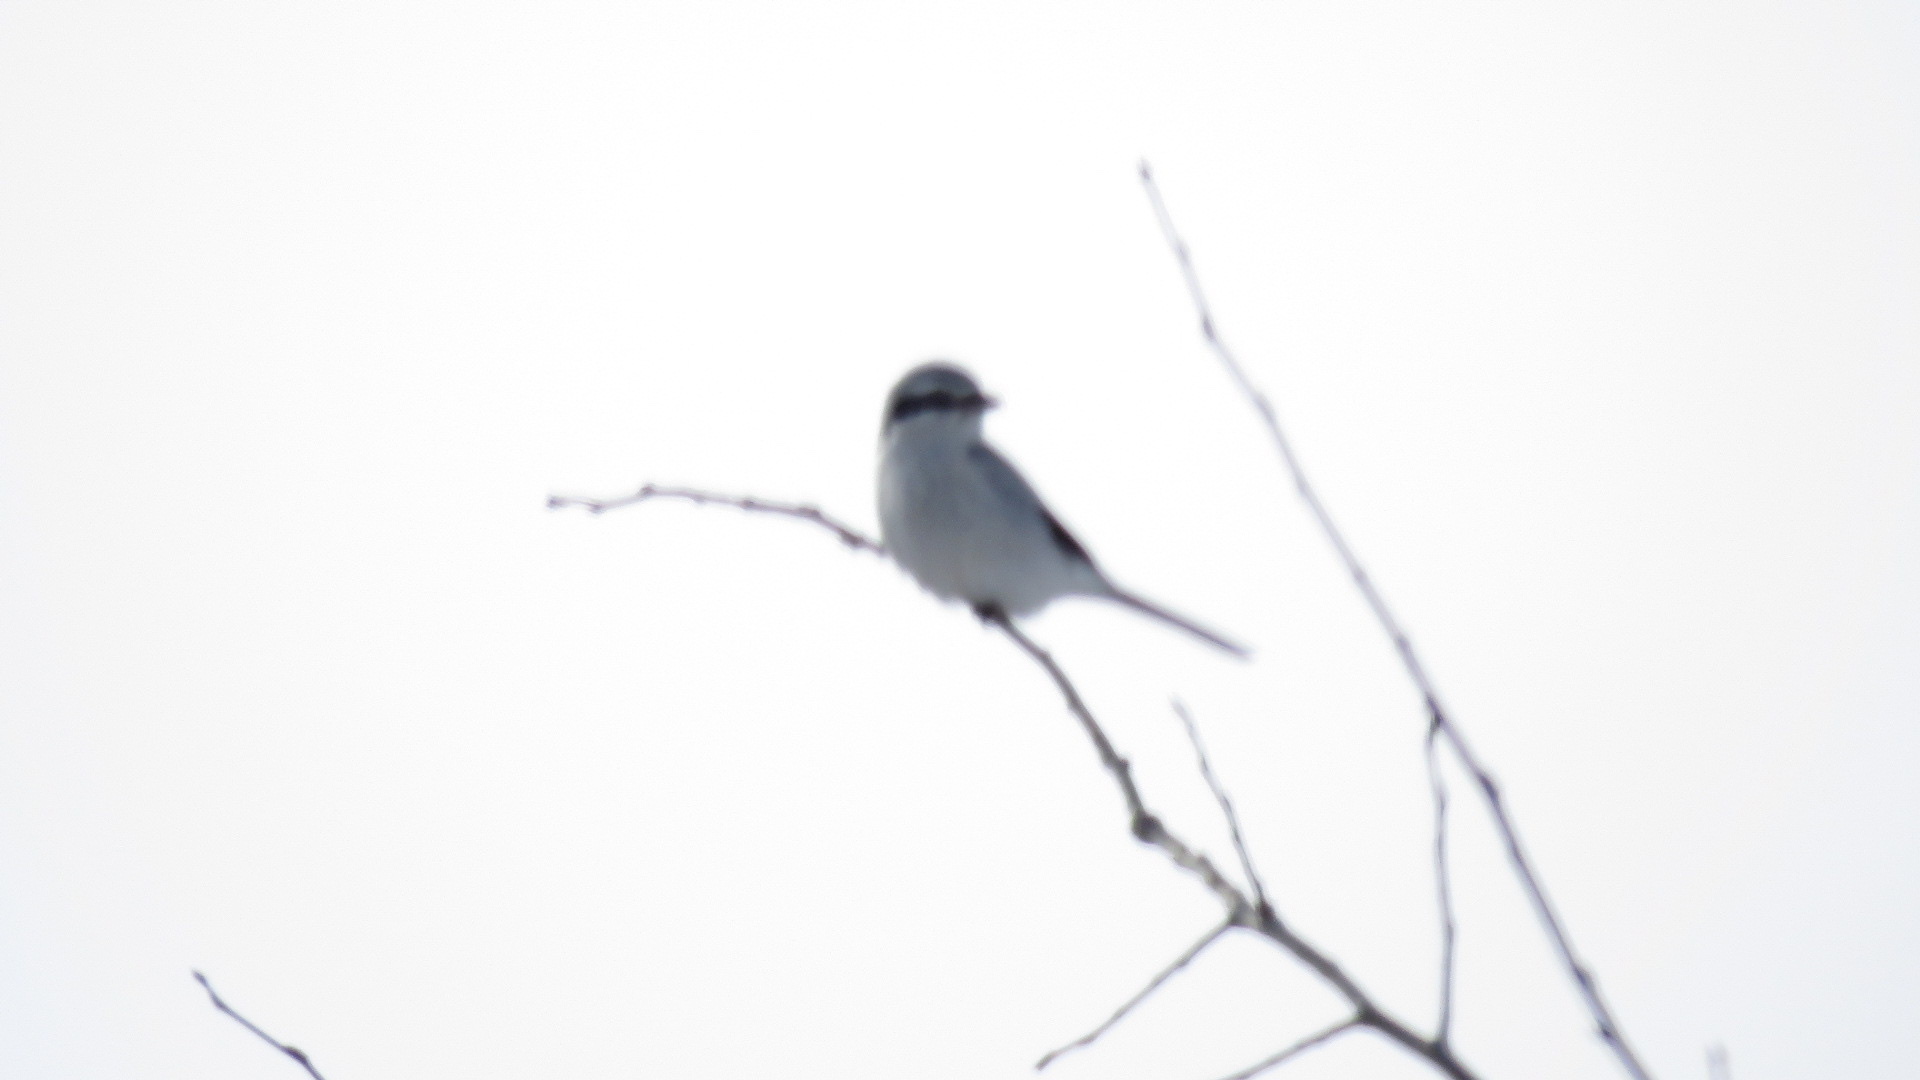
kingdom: Animalia
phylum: Chordata
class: Aves
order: Passeriformes
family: Laniidae
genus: Lanius
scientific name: Lanius borealis
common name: Northern shrike
